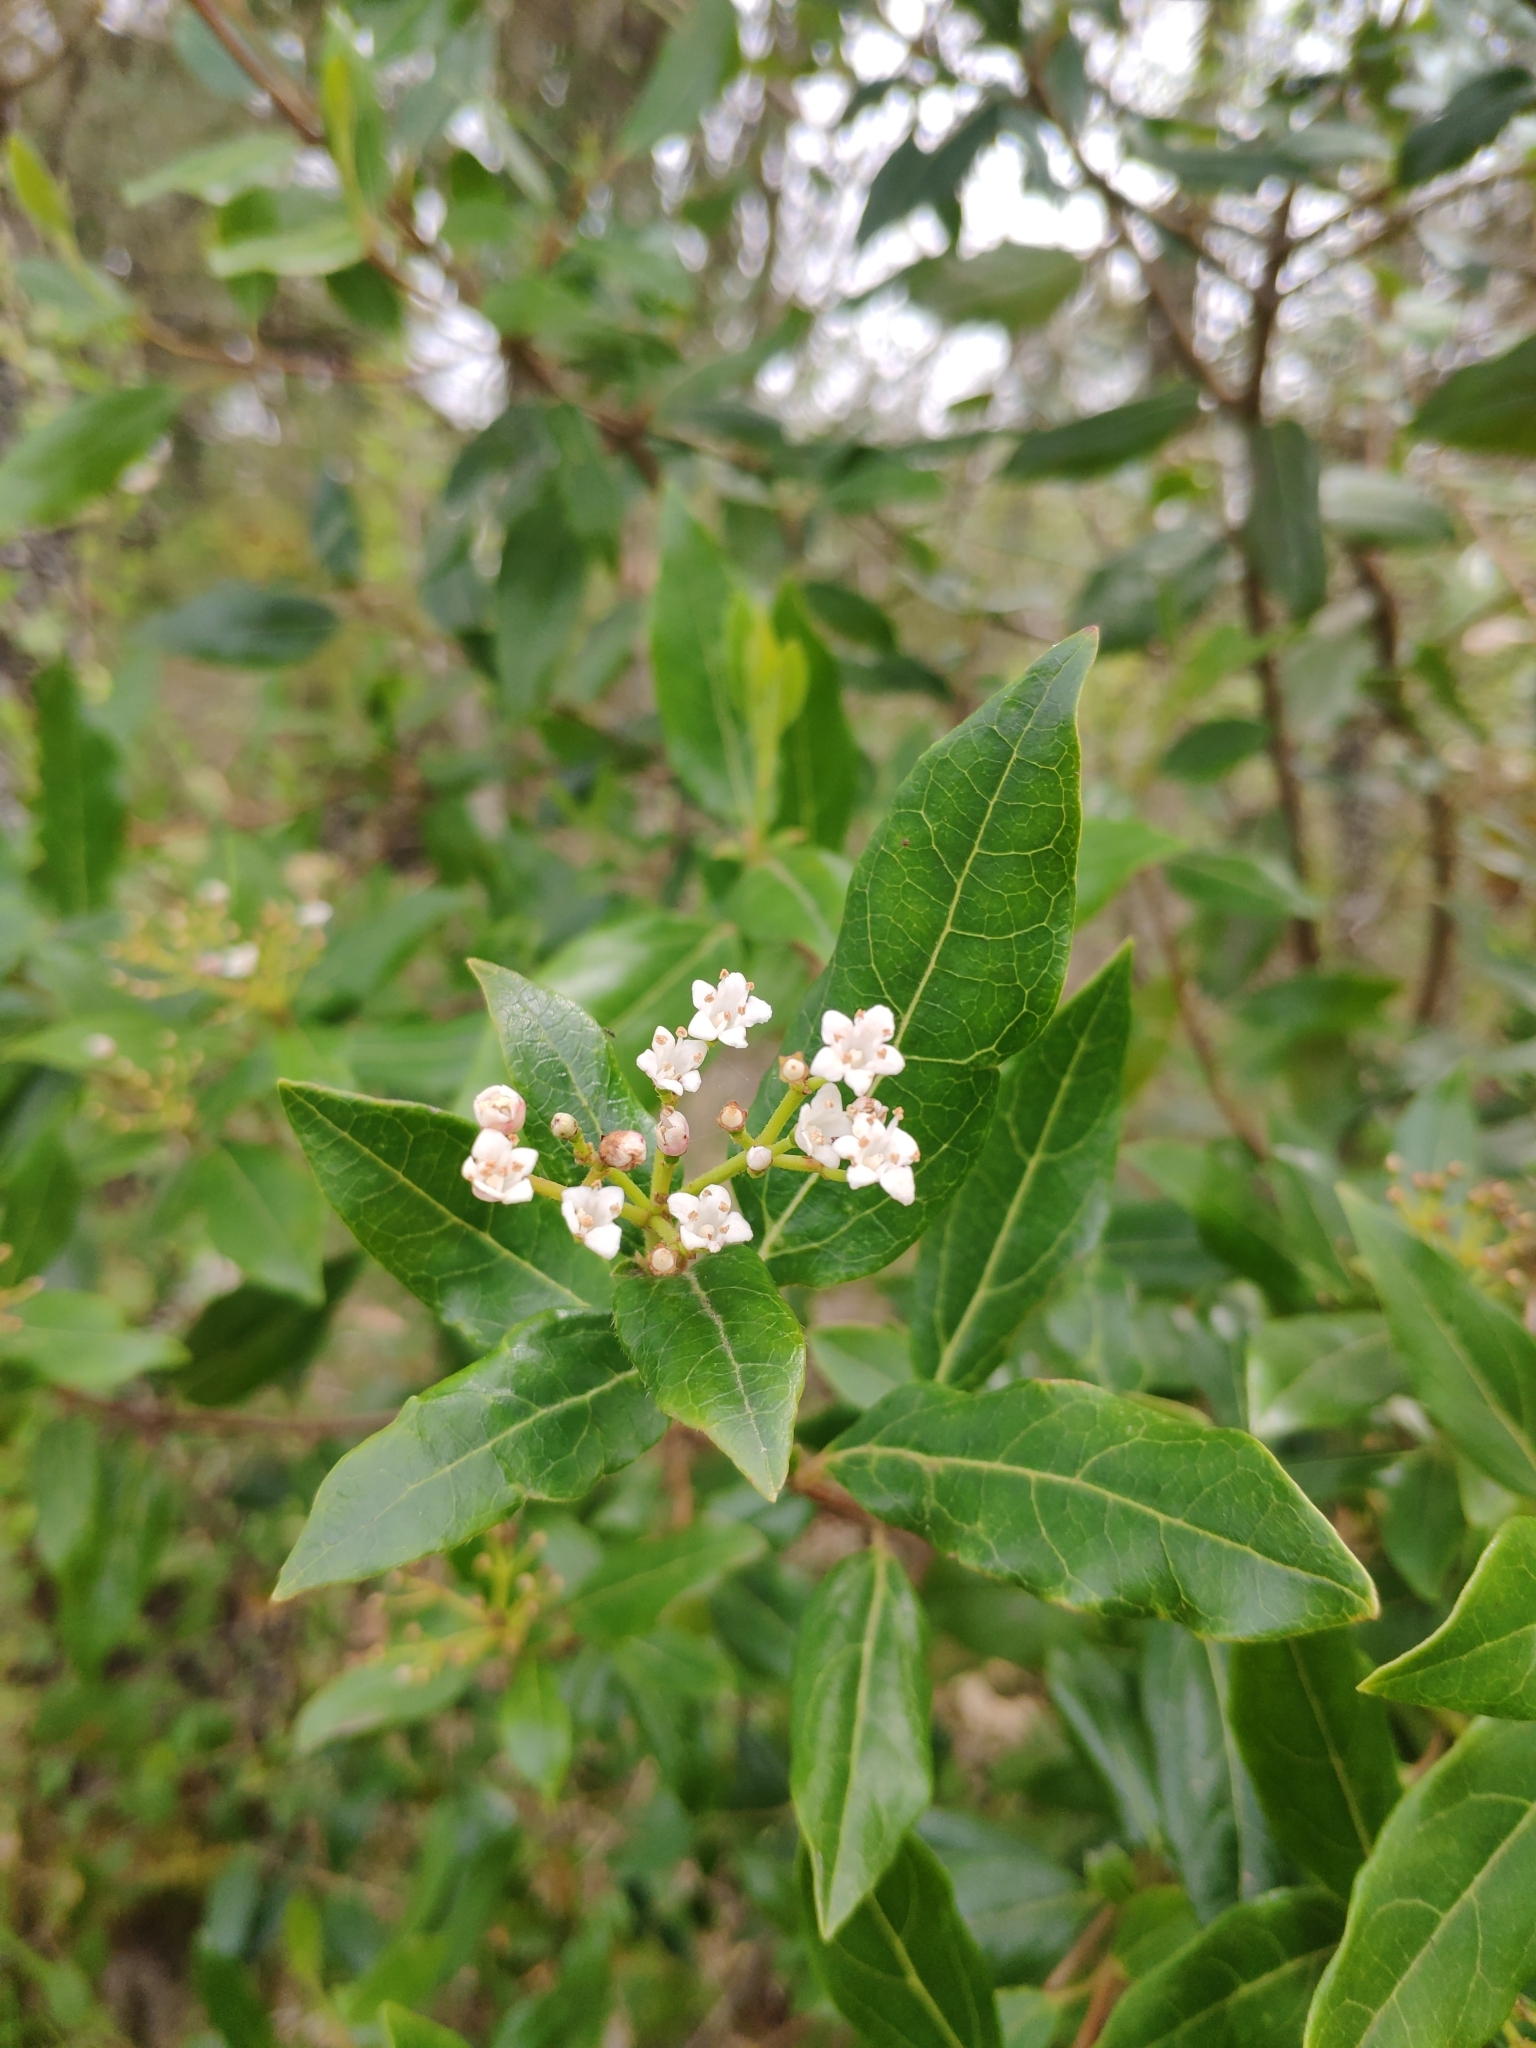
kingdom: Plantae
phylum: Tracheophyta
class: Magnoliopsida
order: Dipsacales
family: Viburnaceae
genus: Viburnum
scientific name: Viburnum tinus
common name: Laurustinus
